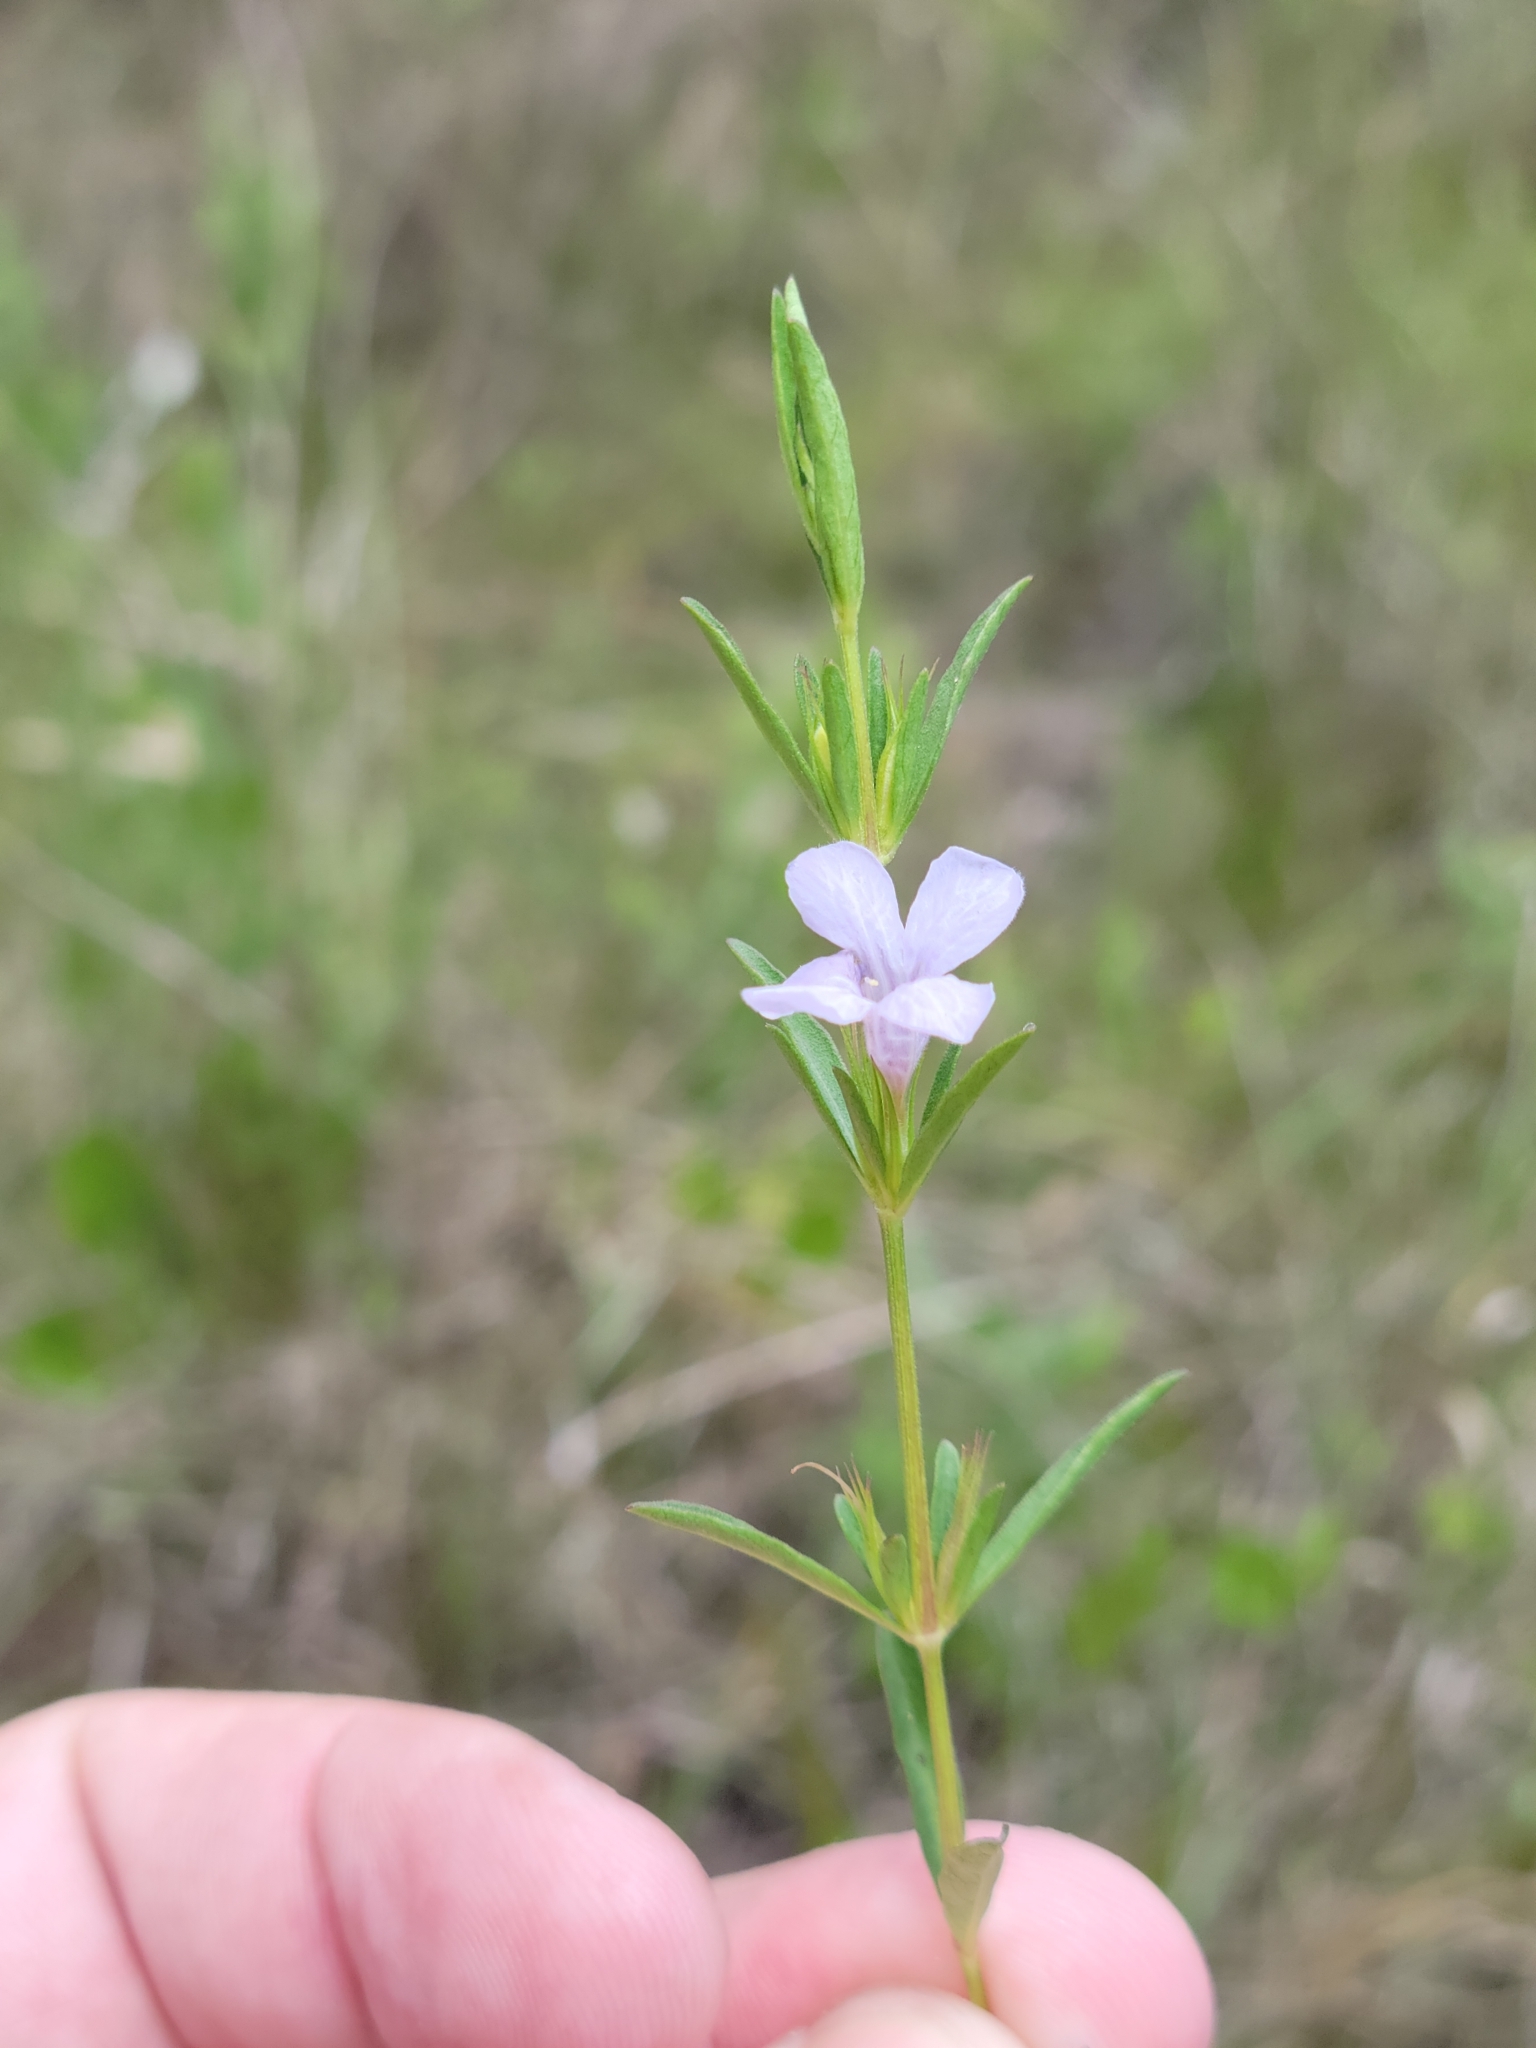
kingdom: Plantae
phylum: Tracheophyta
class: Magnoliopsida
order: Lamiales
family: Acanthaceae
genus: Dyschoriste
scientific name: Dyschoriste angusta
